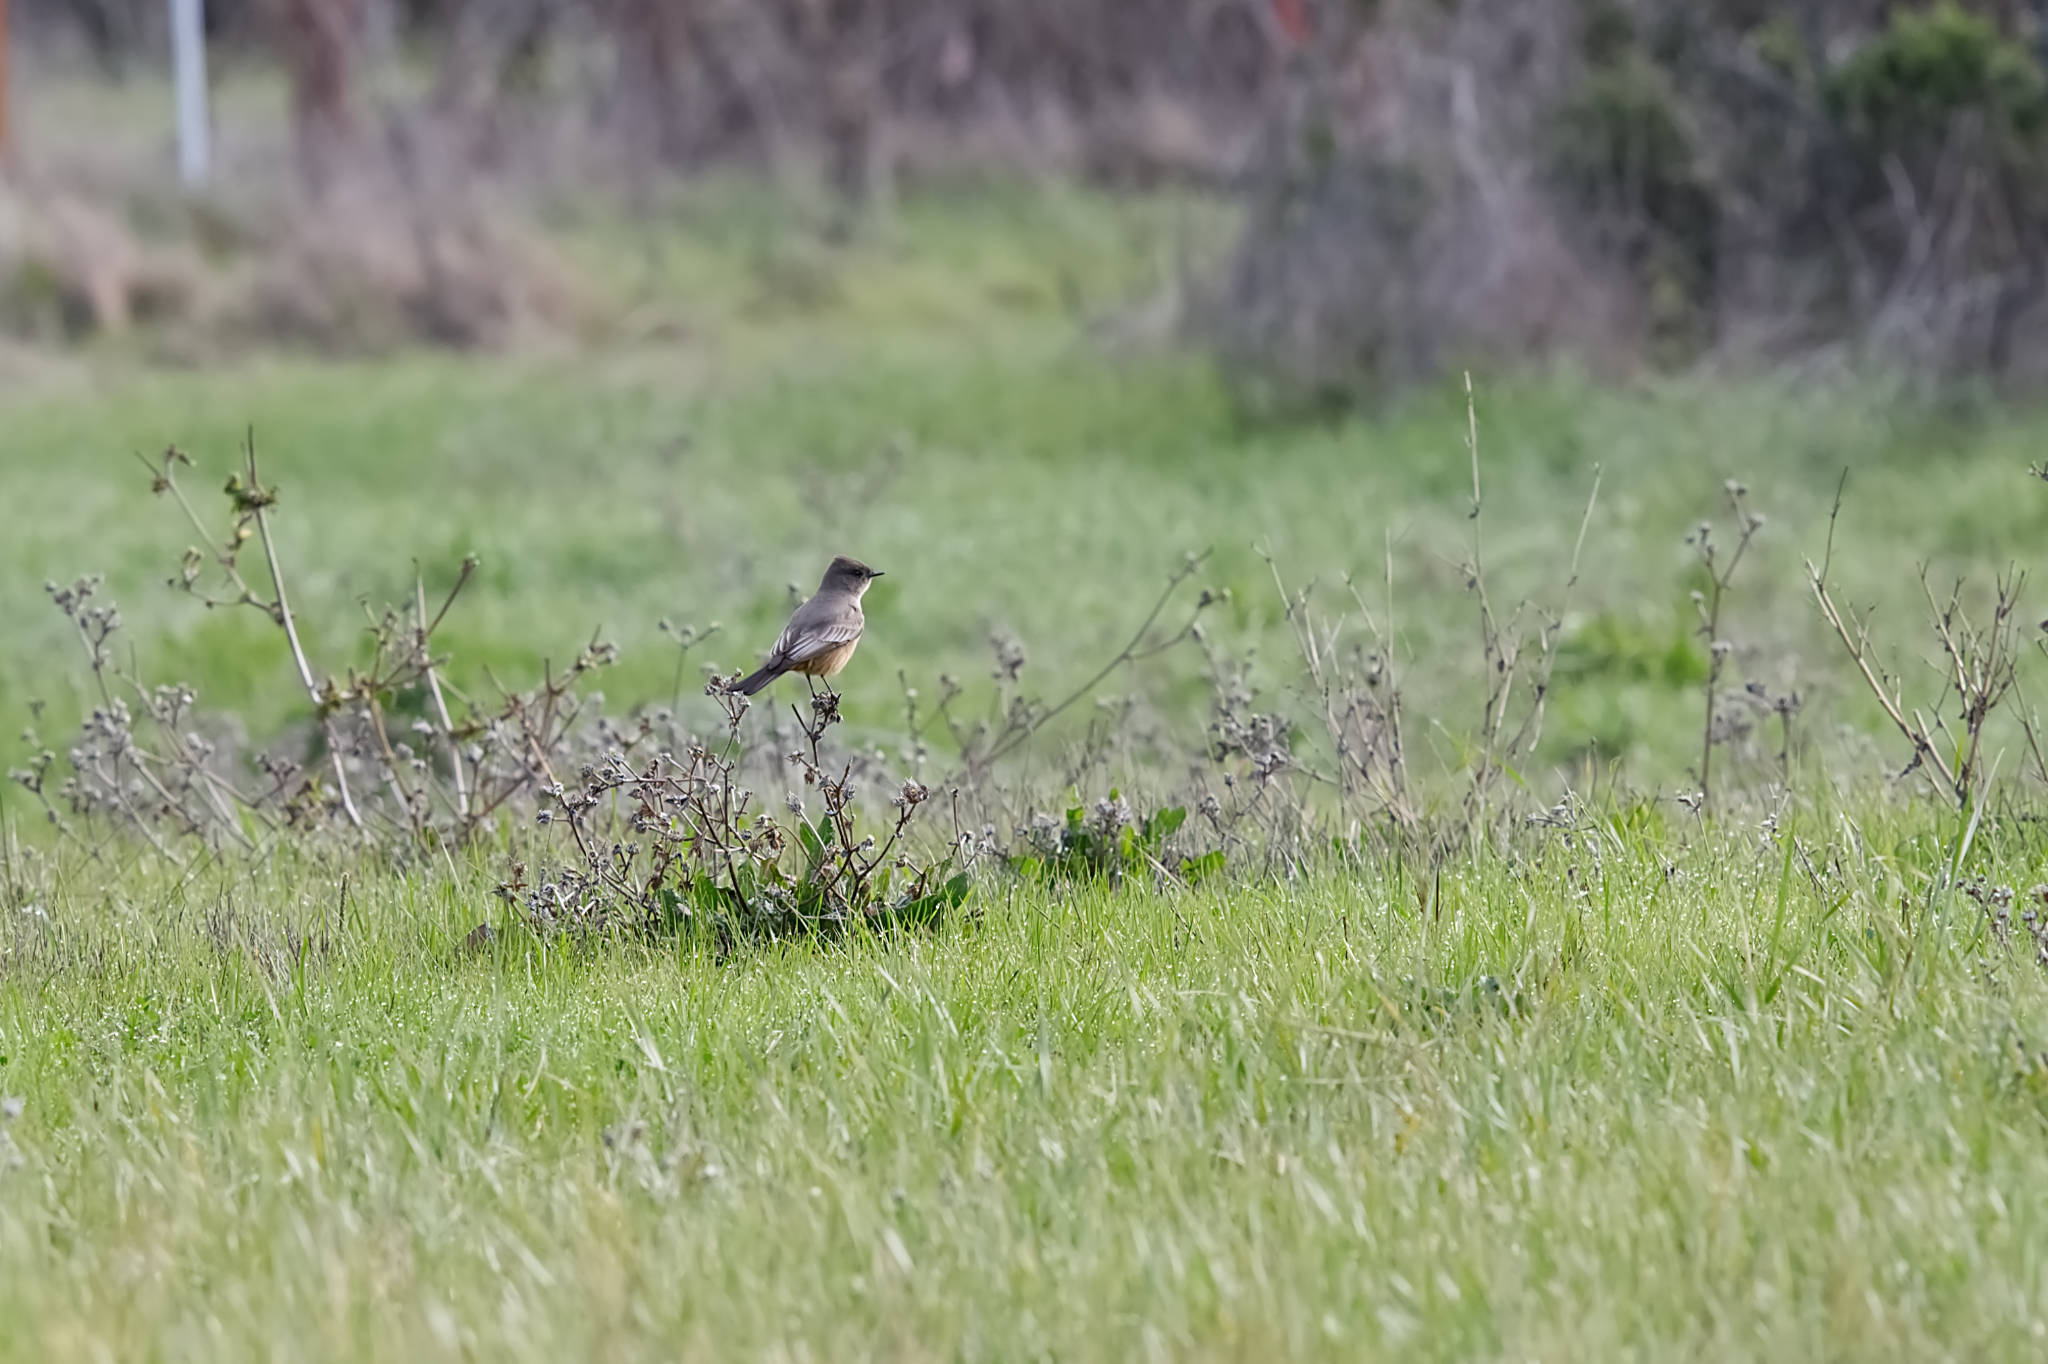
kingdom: Animalia
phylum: Chordata
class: Aves
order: Passeriformes
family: Tyrannidae
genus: Sayornis
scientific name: Sayornis saya
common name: Say's phoebe
